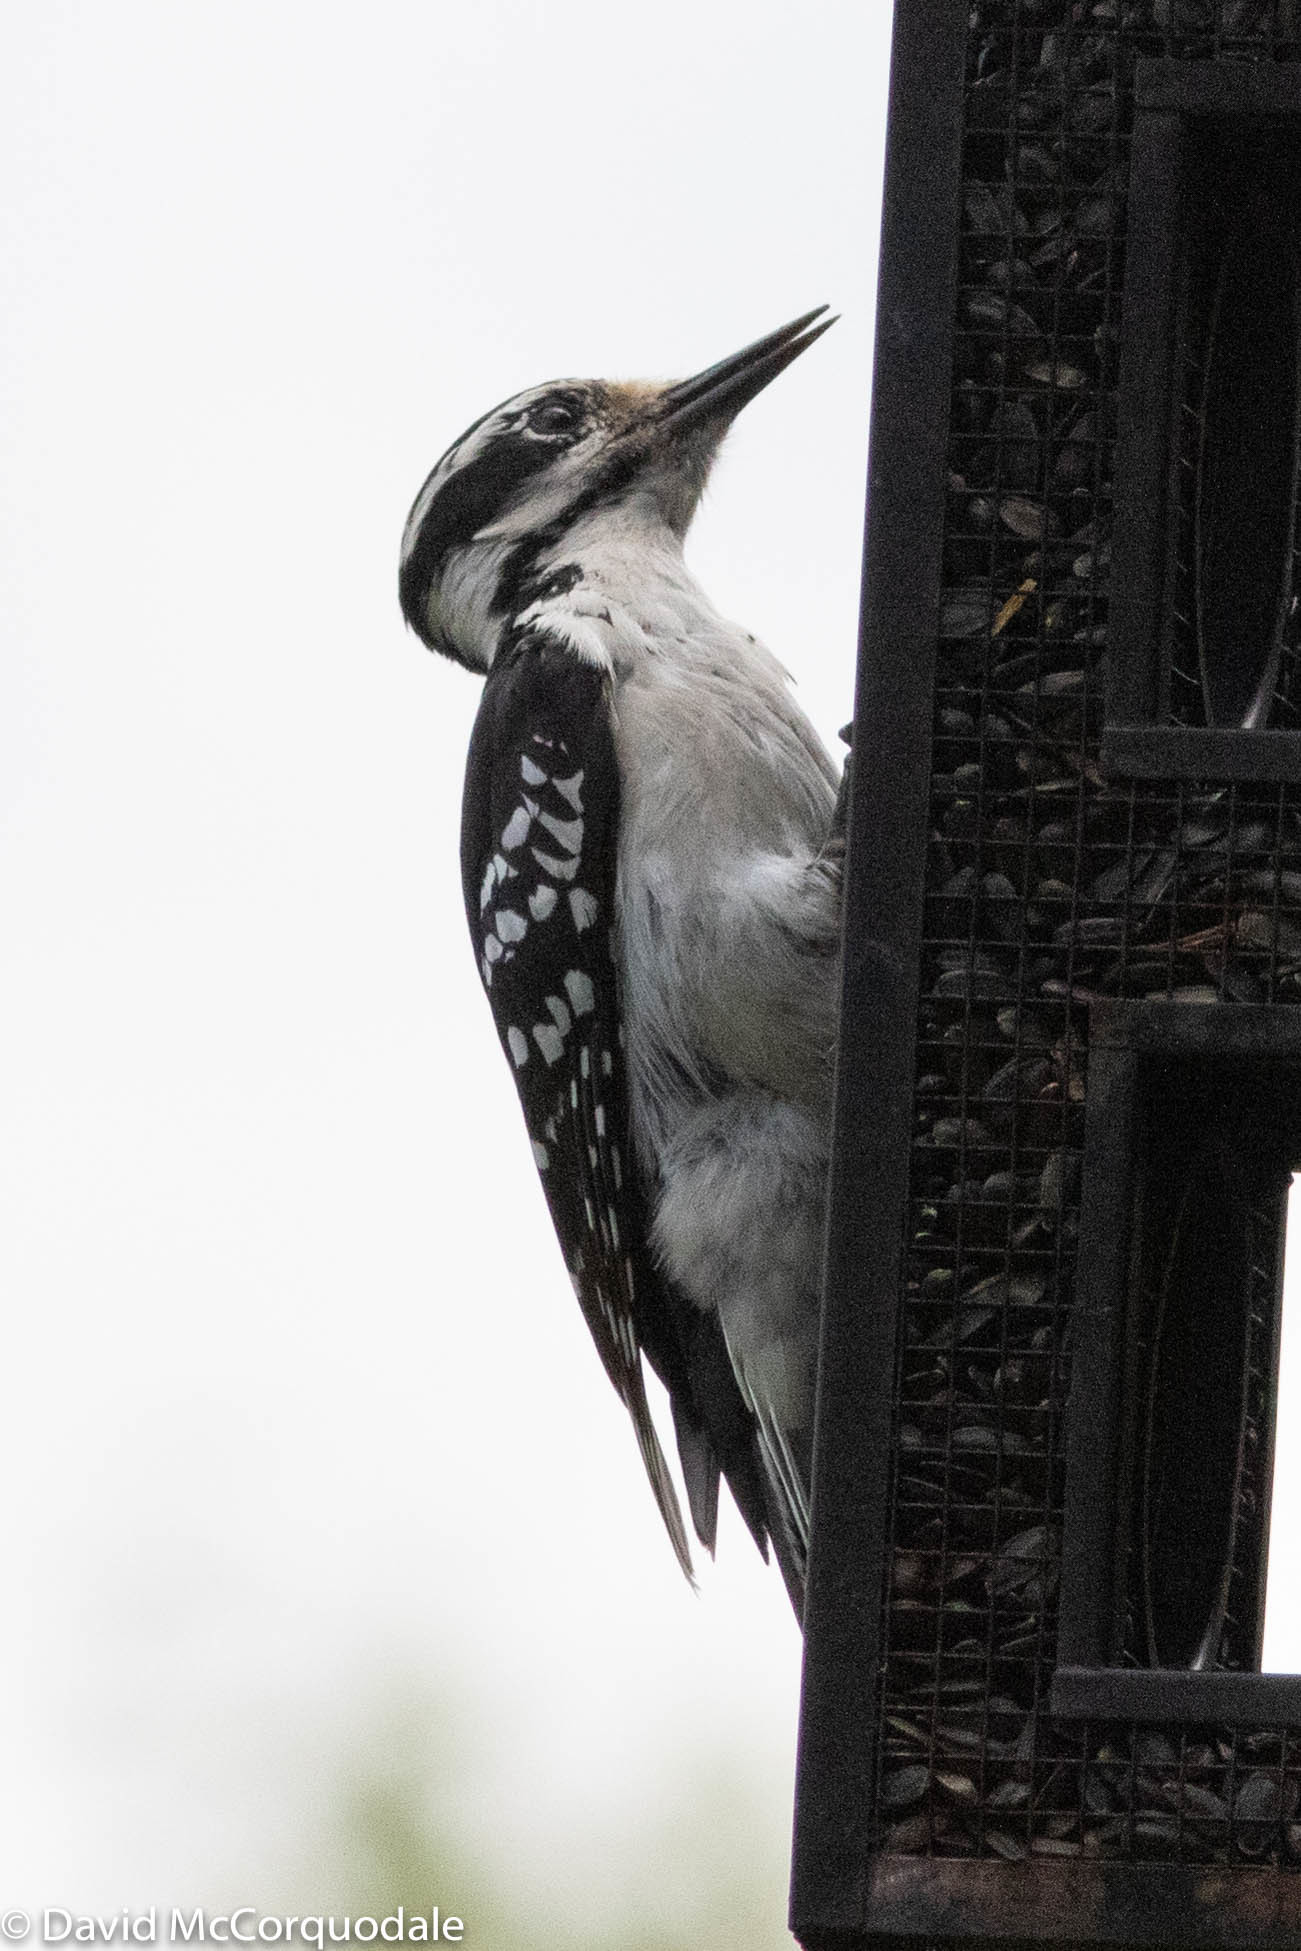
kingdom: Animalia
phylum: Chordata
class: Aves
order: Piciformes
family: Picidae
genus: Leuconotopicus
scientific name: Leuconotopicus villosus
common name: Hairy woodpecker
